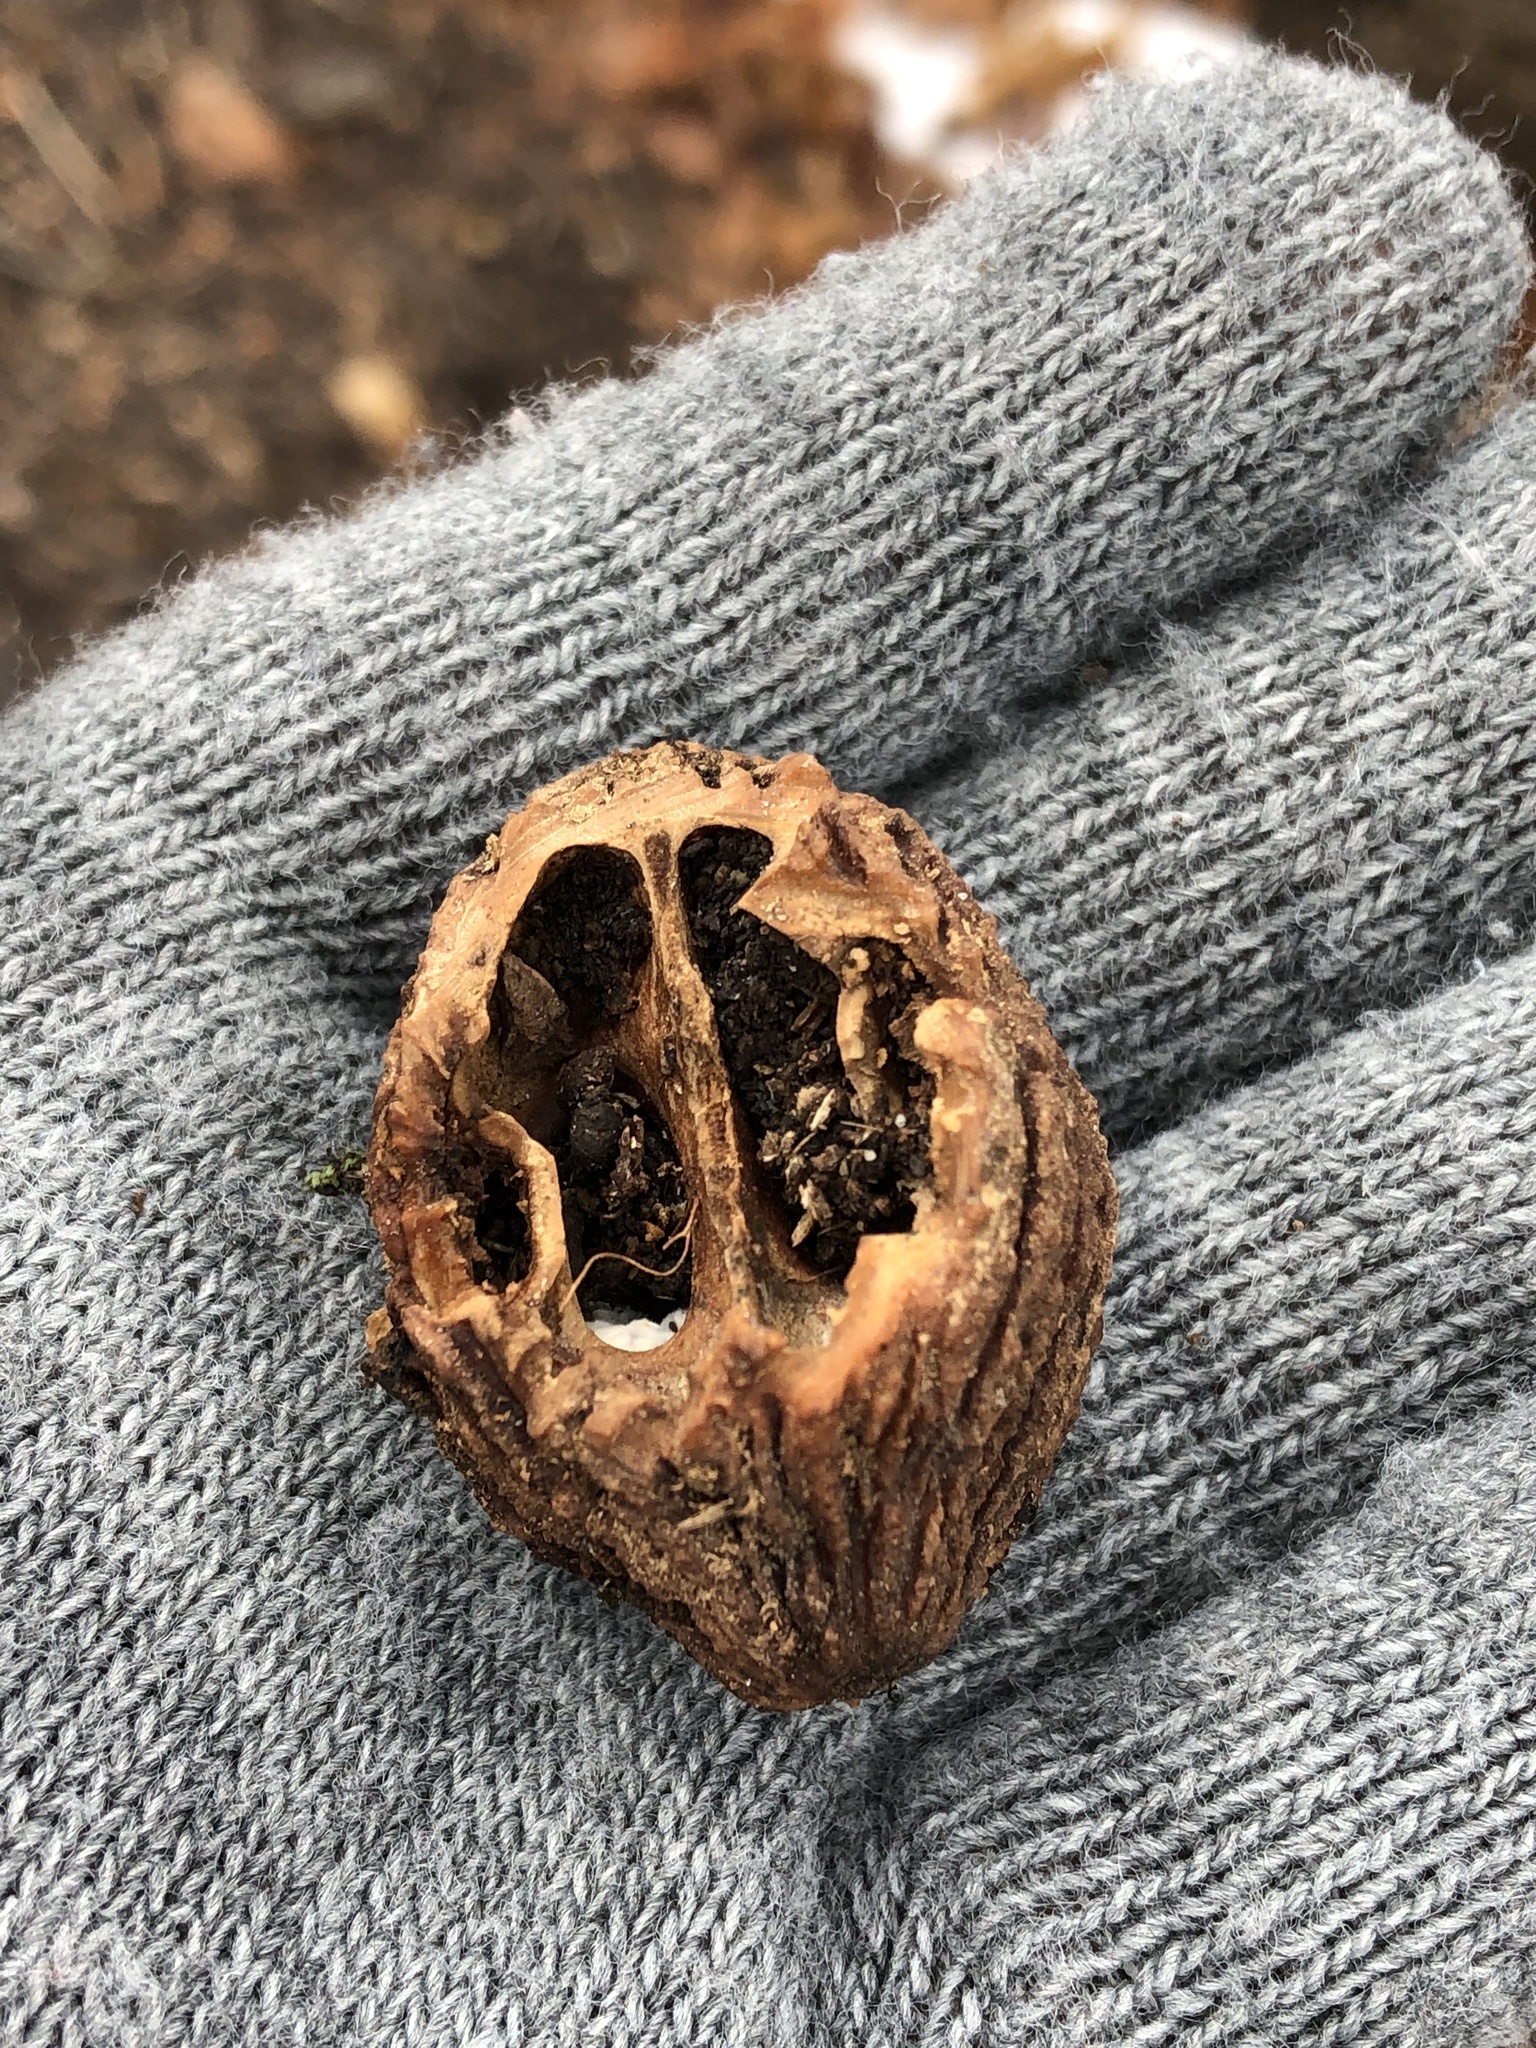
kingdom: Plantae
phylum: Tracheophyta
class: Magnoliopsida
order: Fagales
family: Juglandaceae
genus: Juglans
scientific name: Juglans nigra
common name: Black walnut
